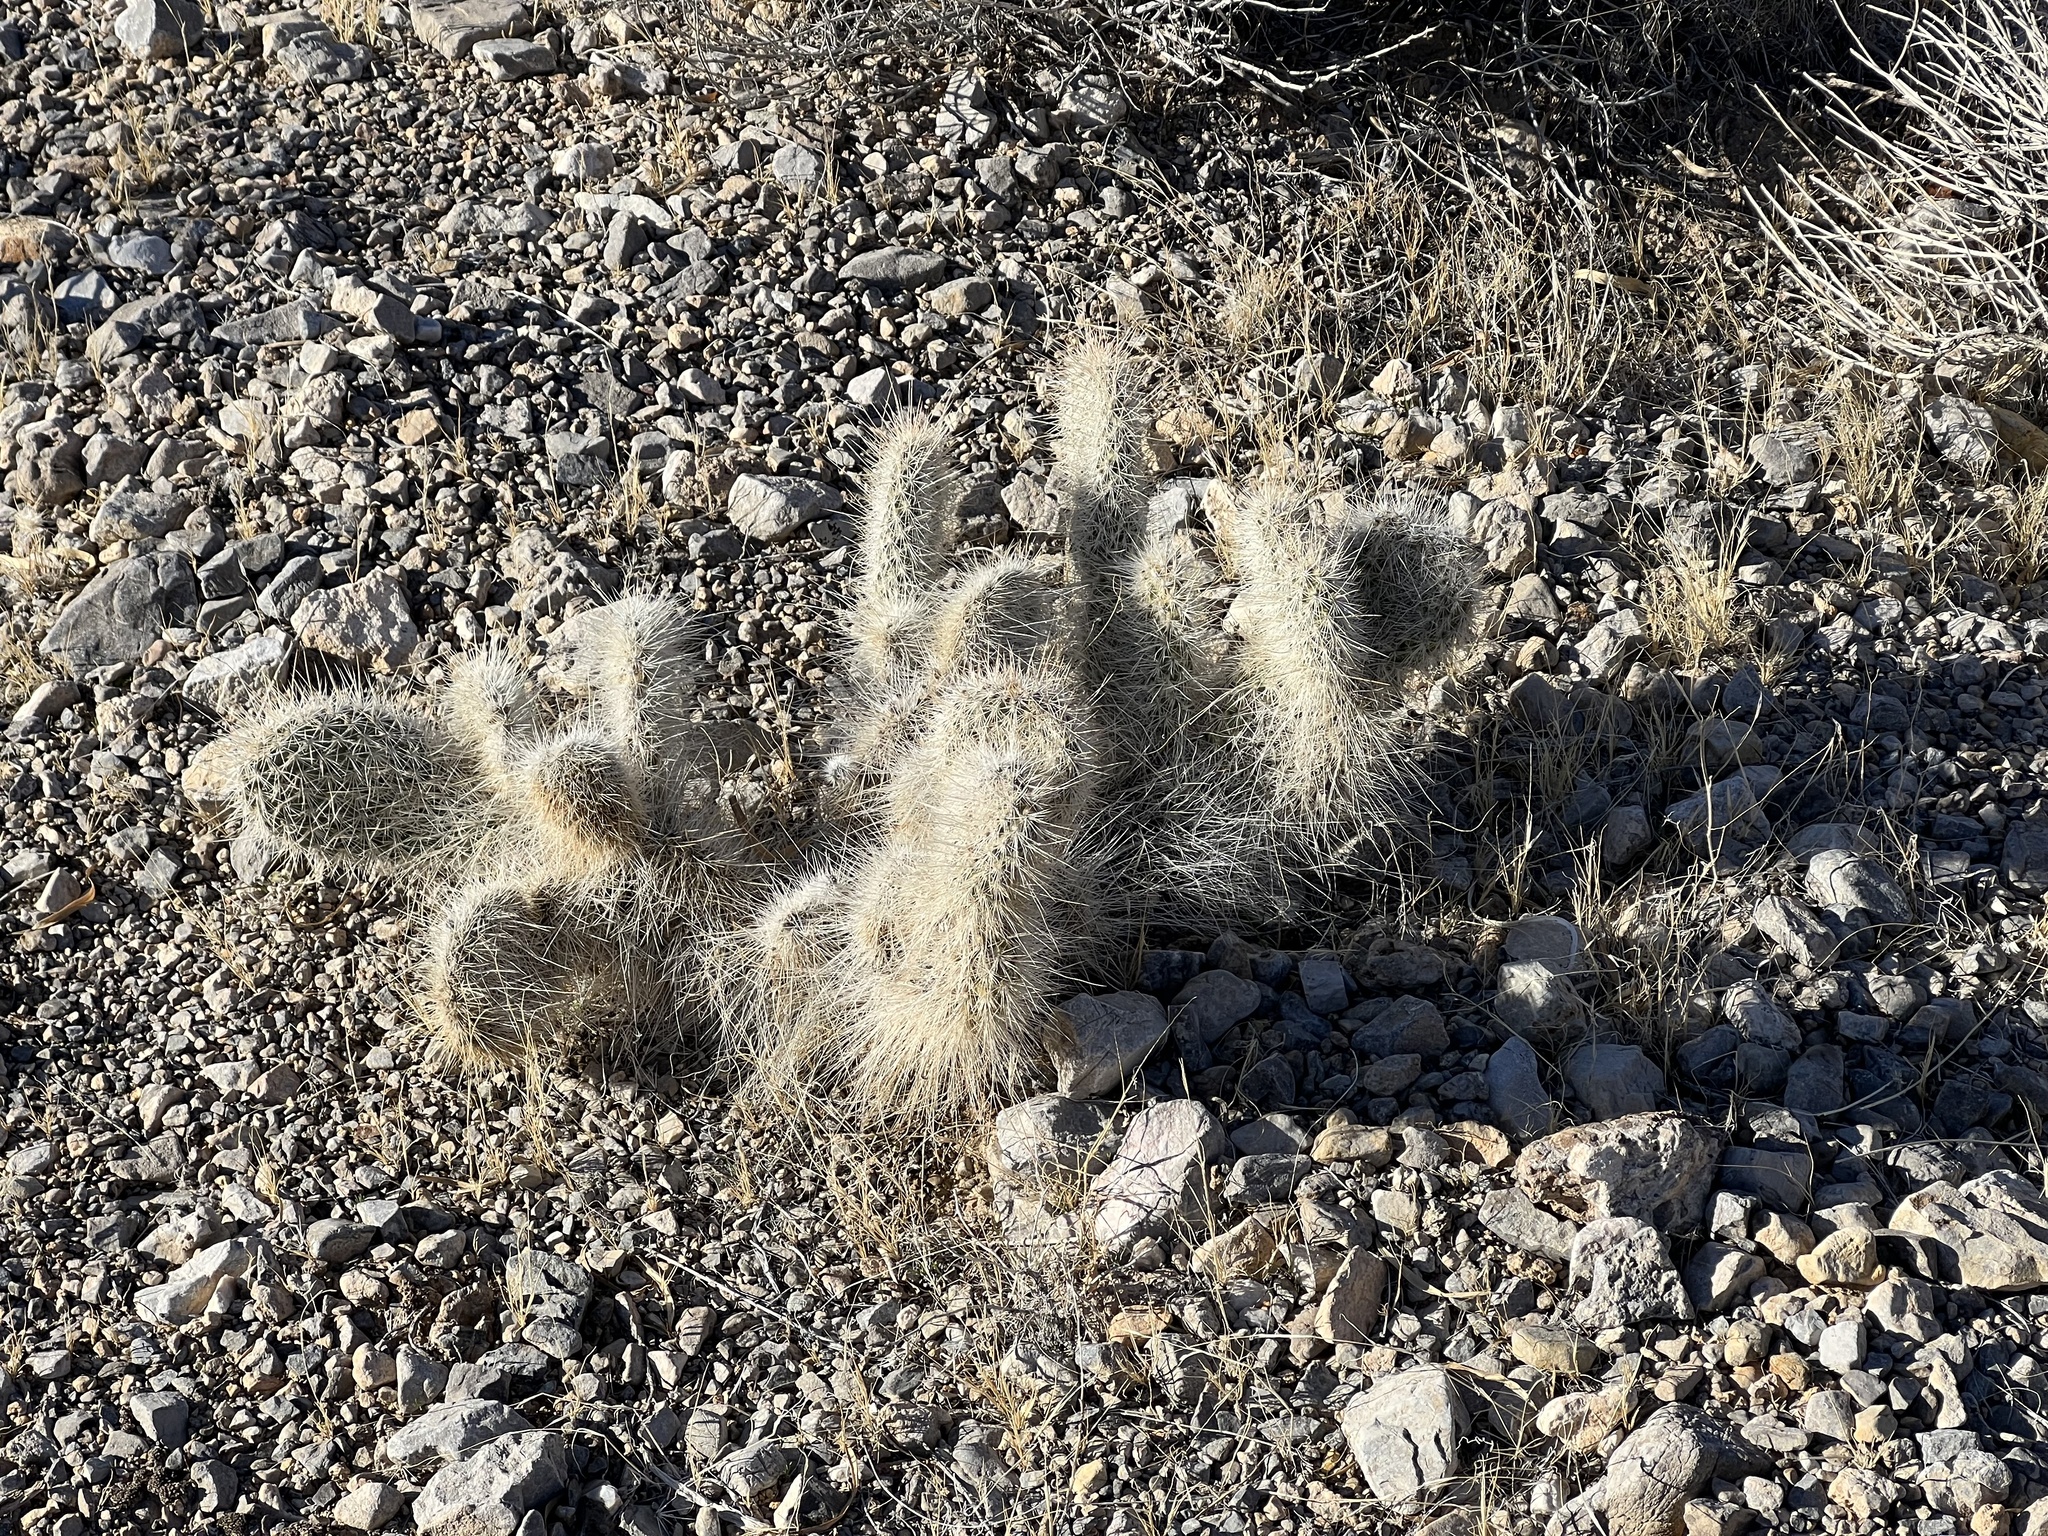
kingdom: Plantae
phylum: Tracheophyta
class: Magnoliopsida
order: Caryophyllales
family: Cactaceae
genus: Opuntia
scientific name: Opuntia polyacantha
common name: Plains prickly-pear
